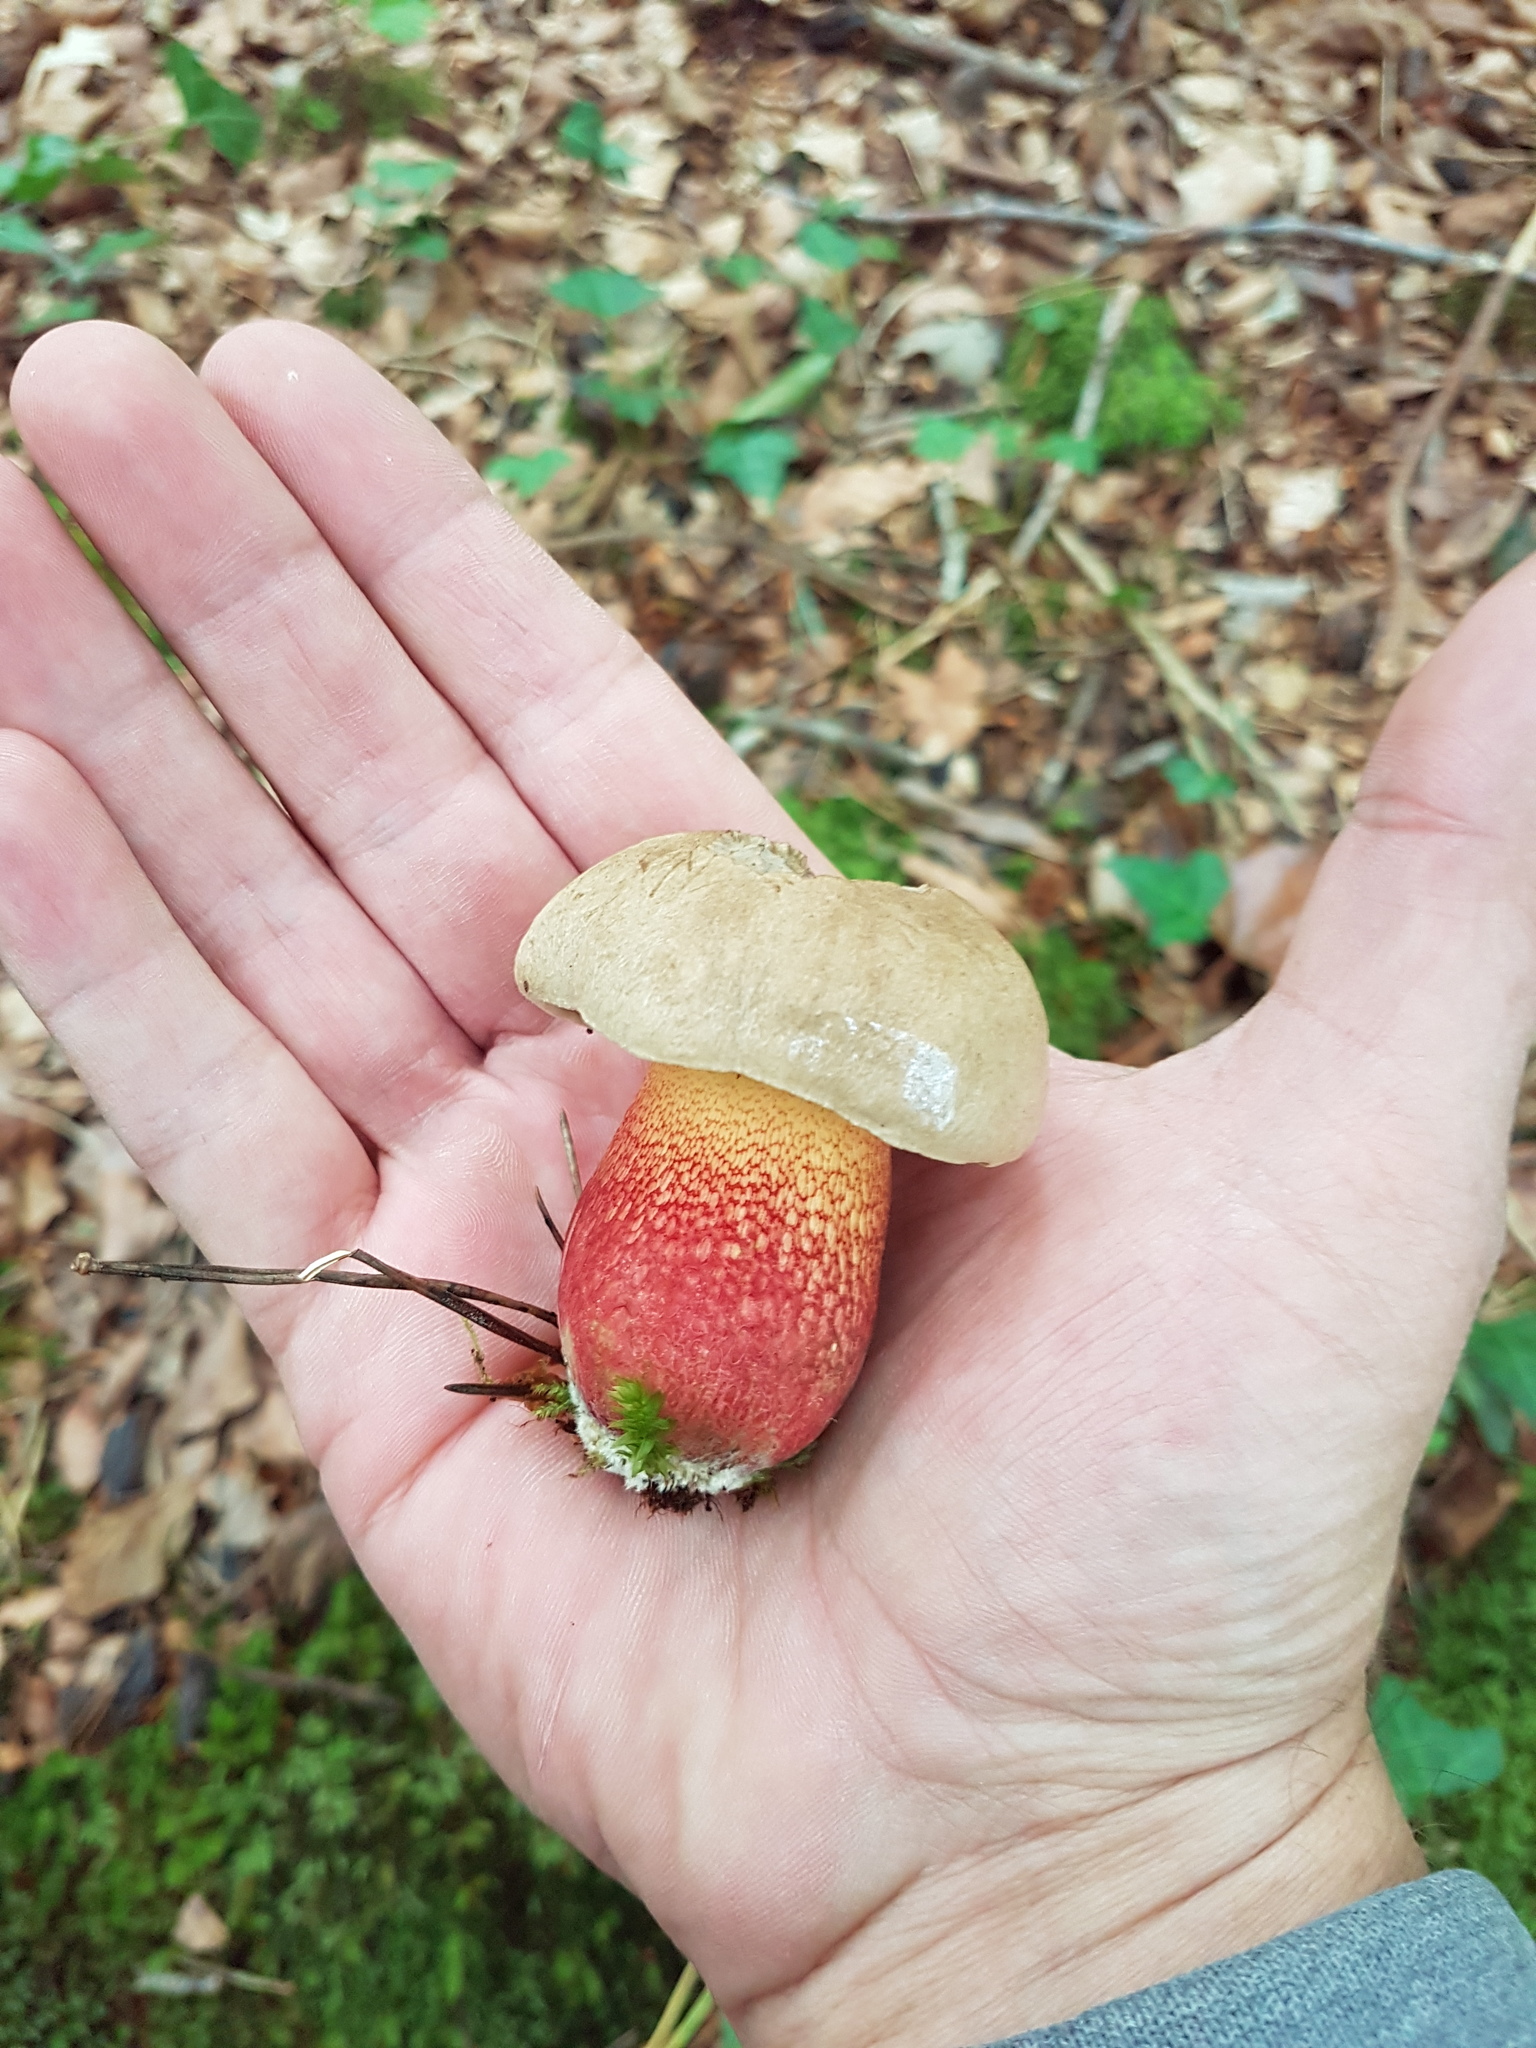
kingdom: Fungi
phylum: Basidiomycota
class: Agaricomycetes
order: Boletales
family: Boletaceae
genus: Caloboletus
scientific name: Caloboletus calopus
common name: Bitter beech bolete
